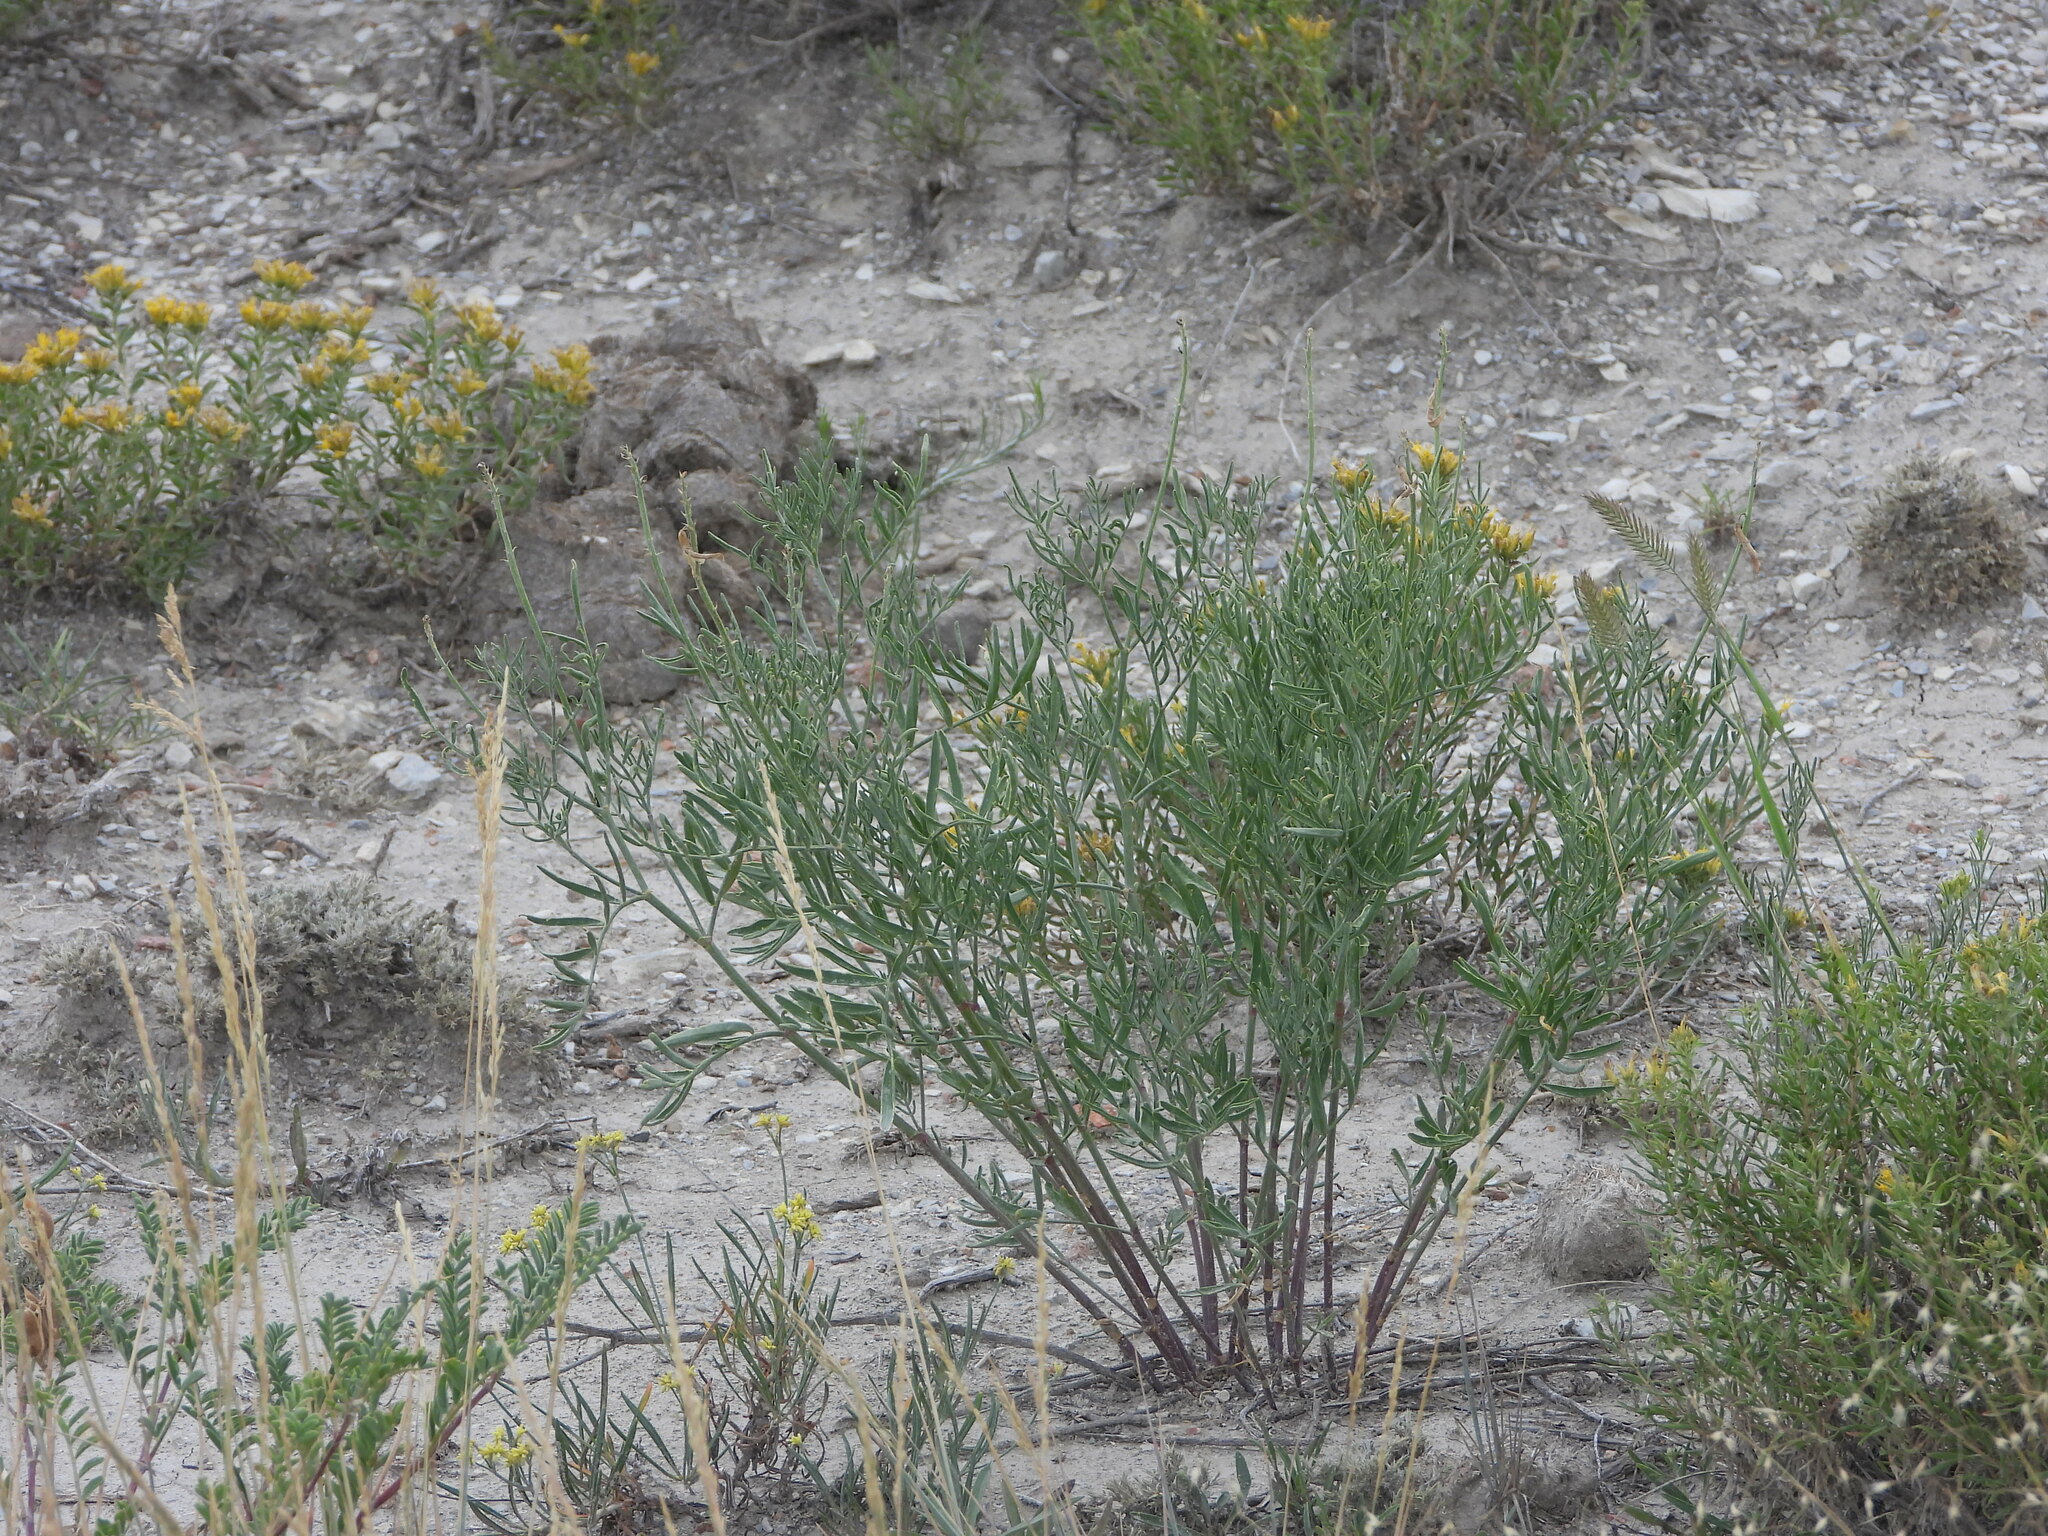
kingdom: Plantae
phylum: Tracheophyta
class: Magnoliopsida
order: Fabales
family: Fabaceae
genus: Astragalus
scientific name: Astragalus osterhoutii
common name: Osterhout's milk-vetch
